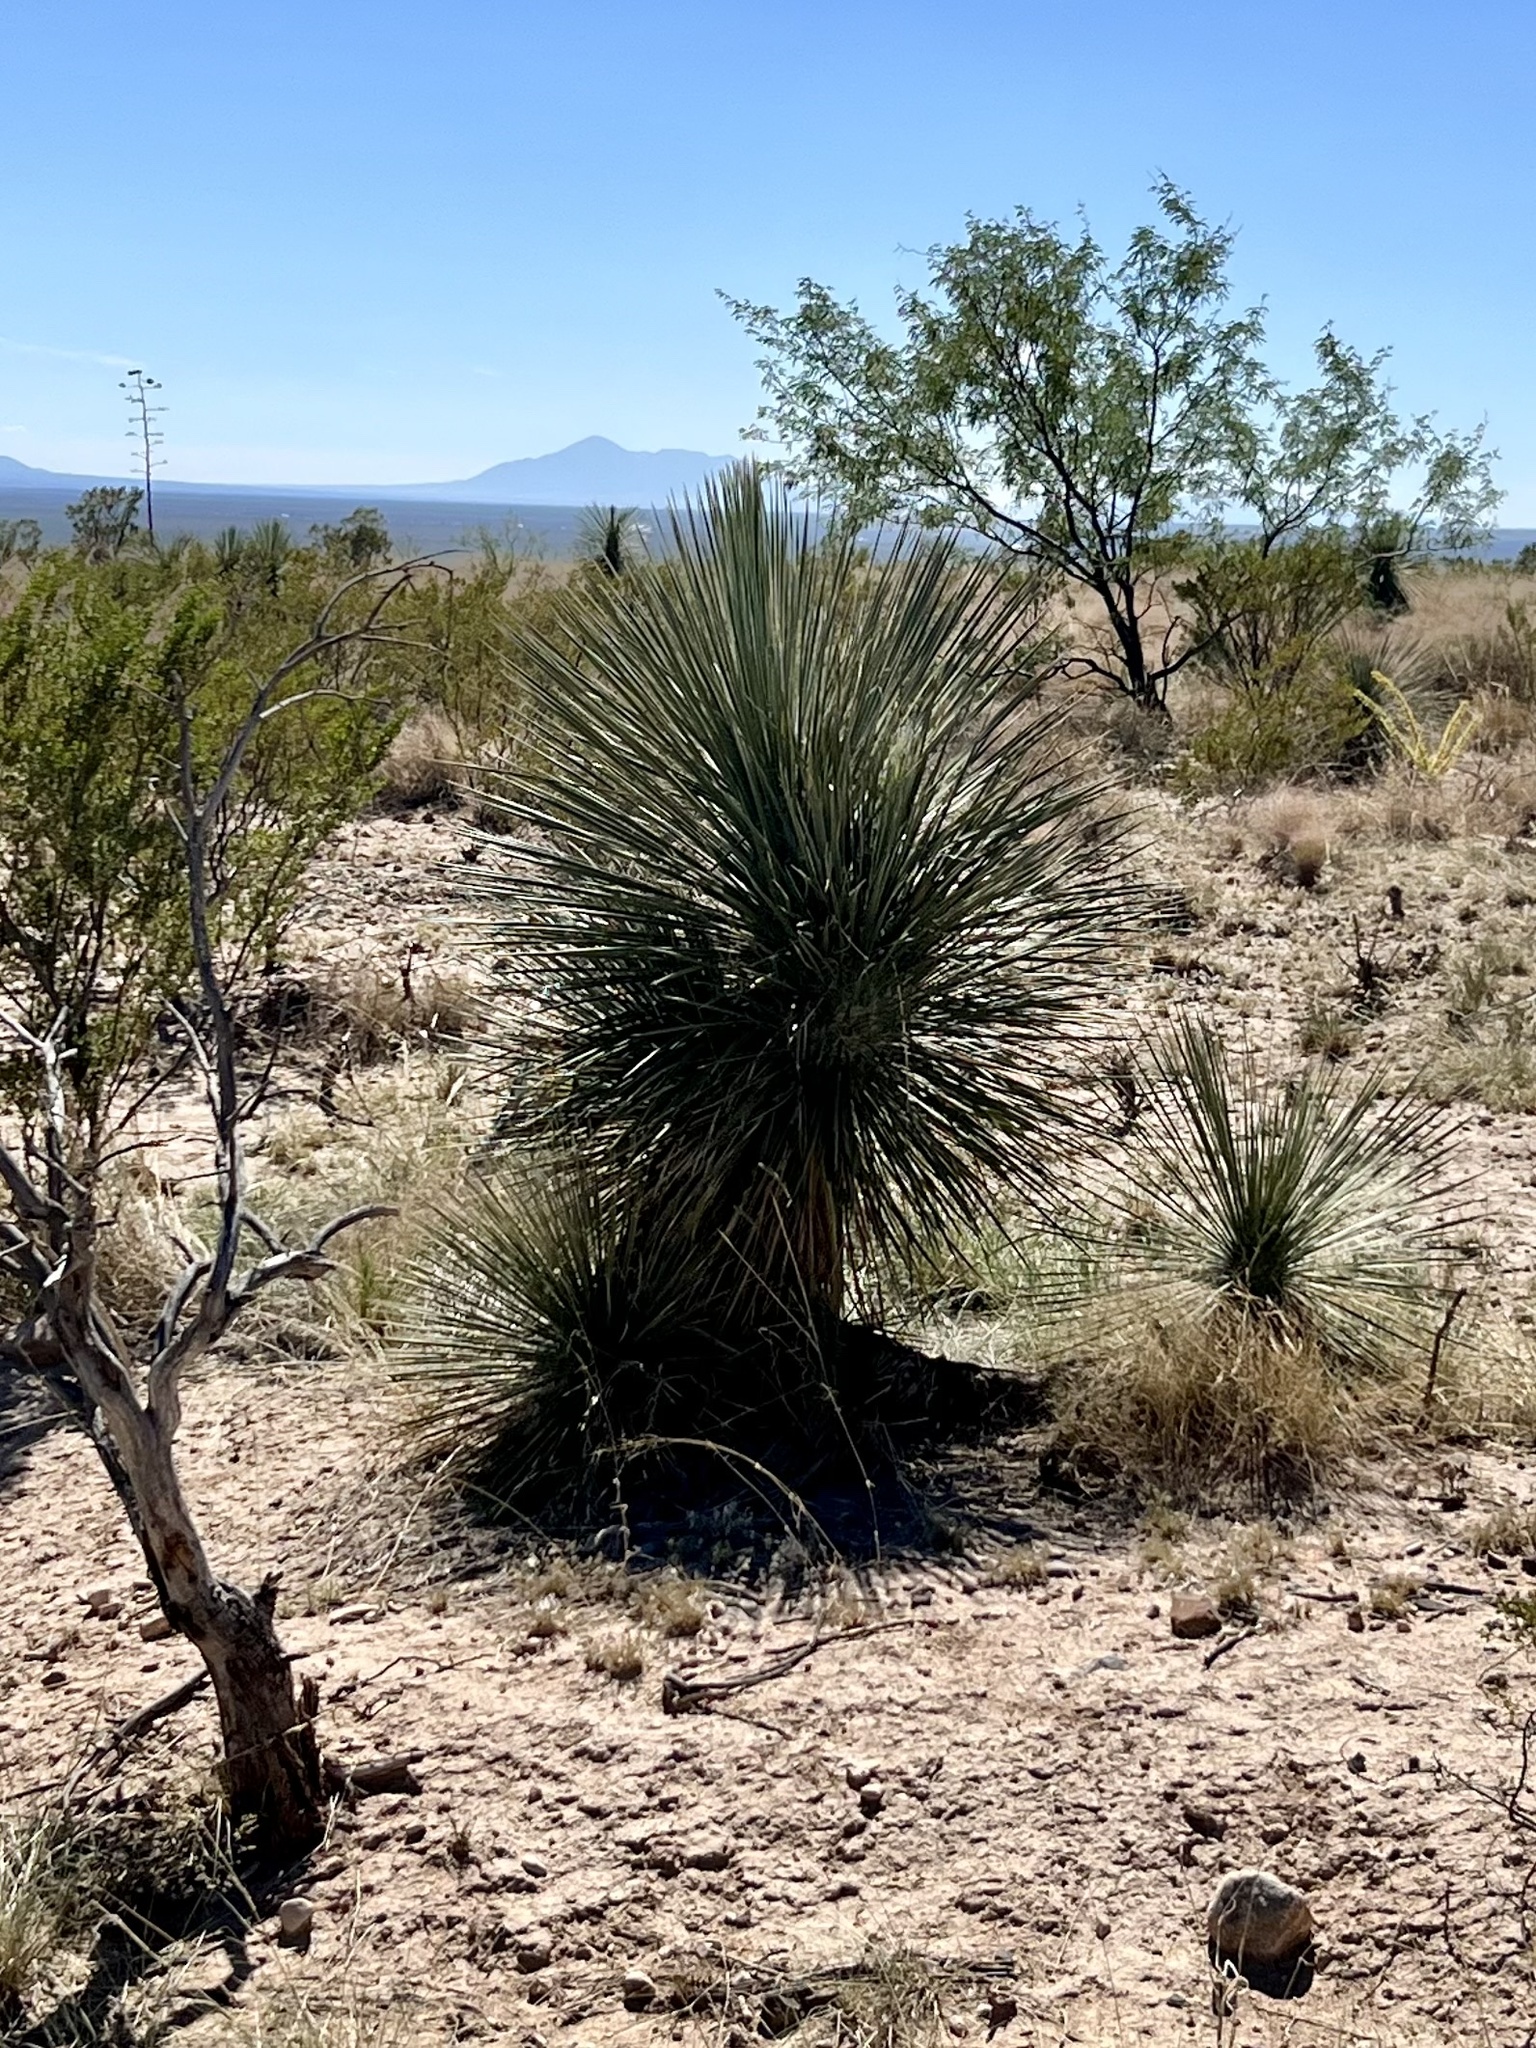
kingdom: Plantae
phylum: Tracheophyta
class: Liliopsida
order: Asparagales
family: Asparagaceae
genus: Yucca
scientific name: Yucca elata
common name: Palmella
